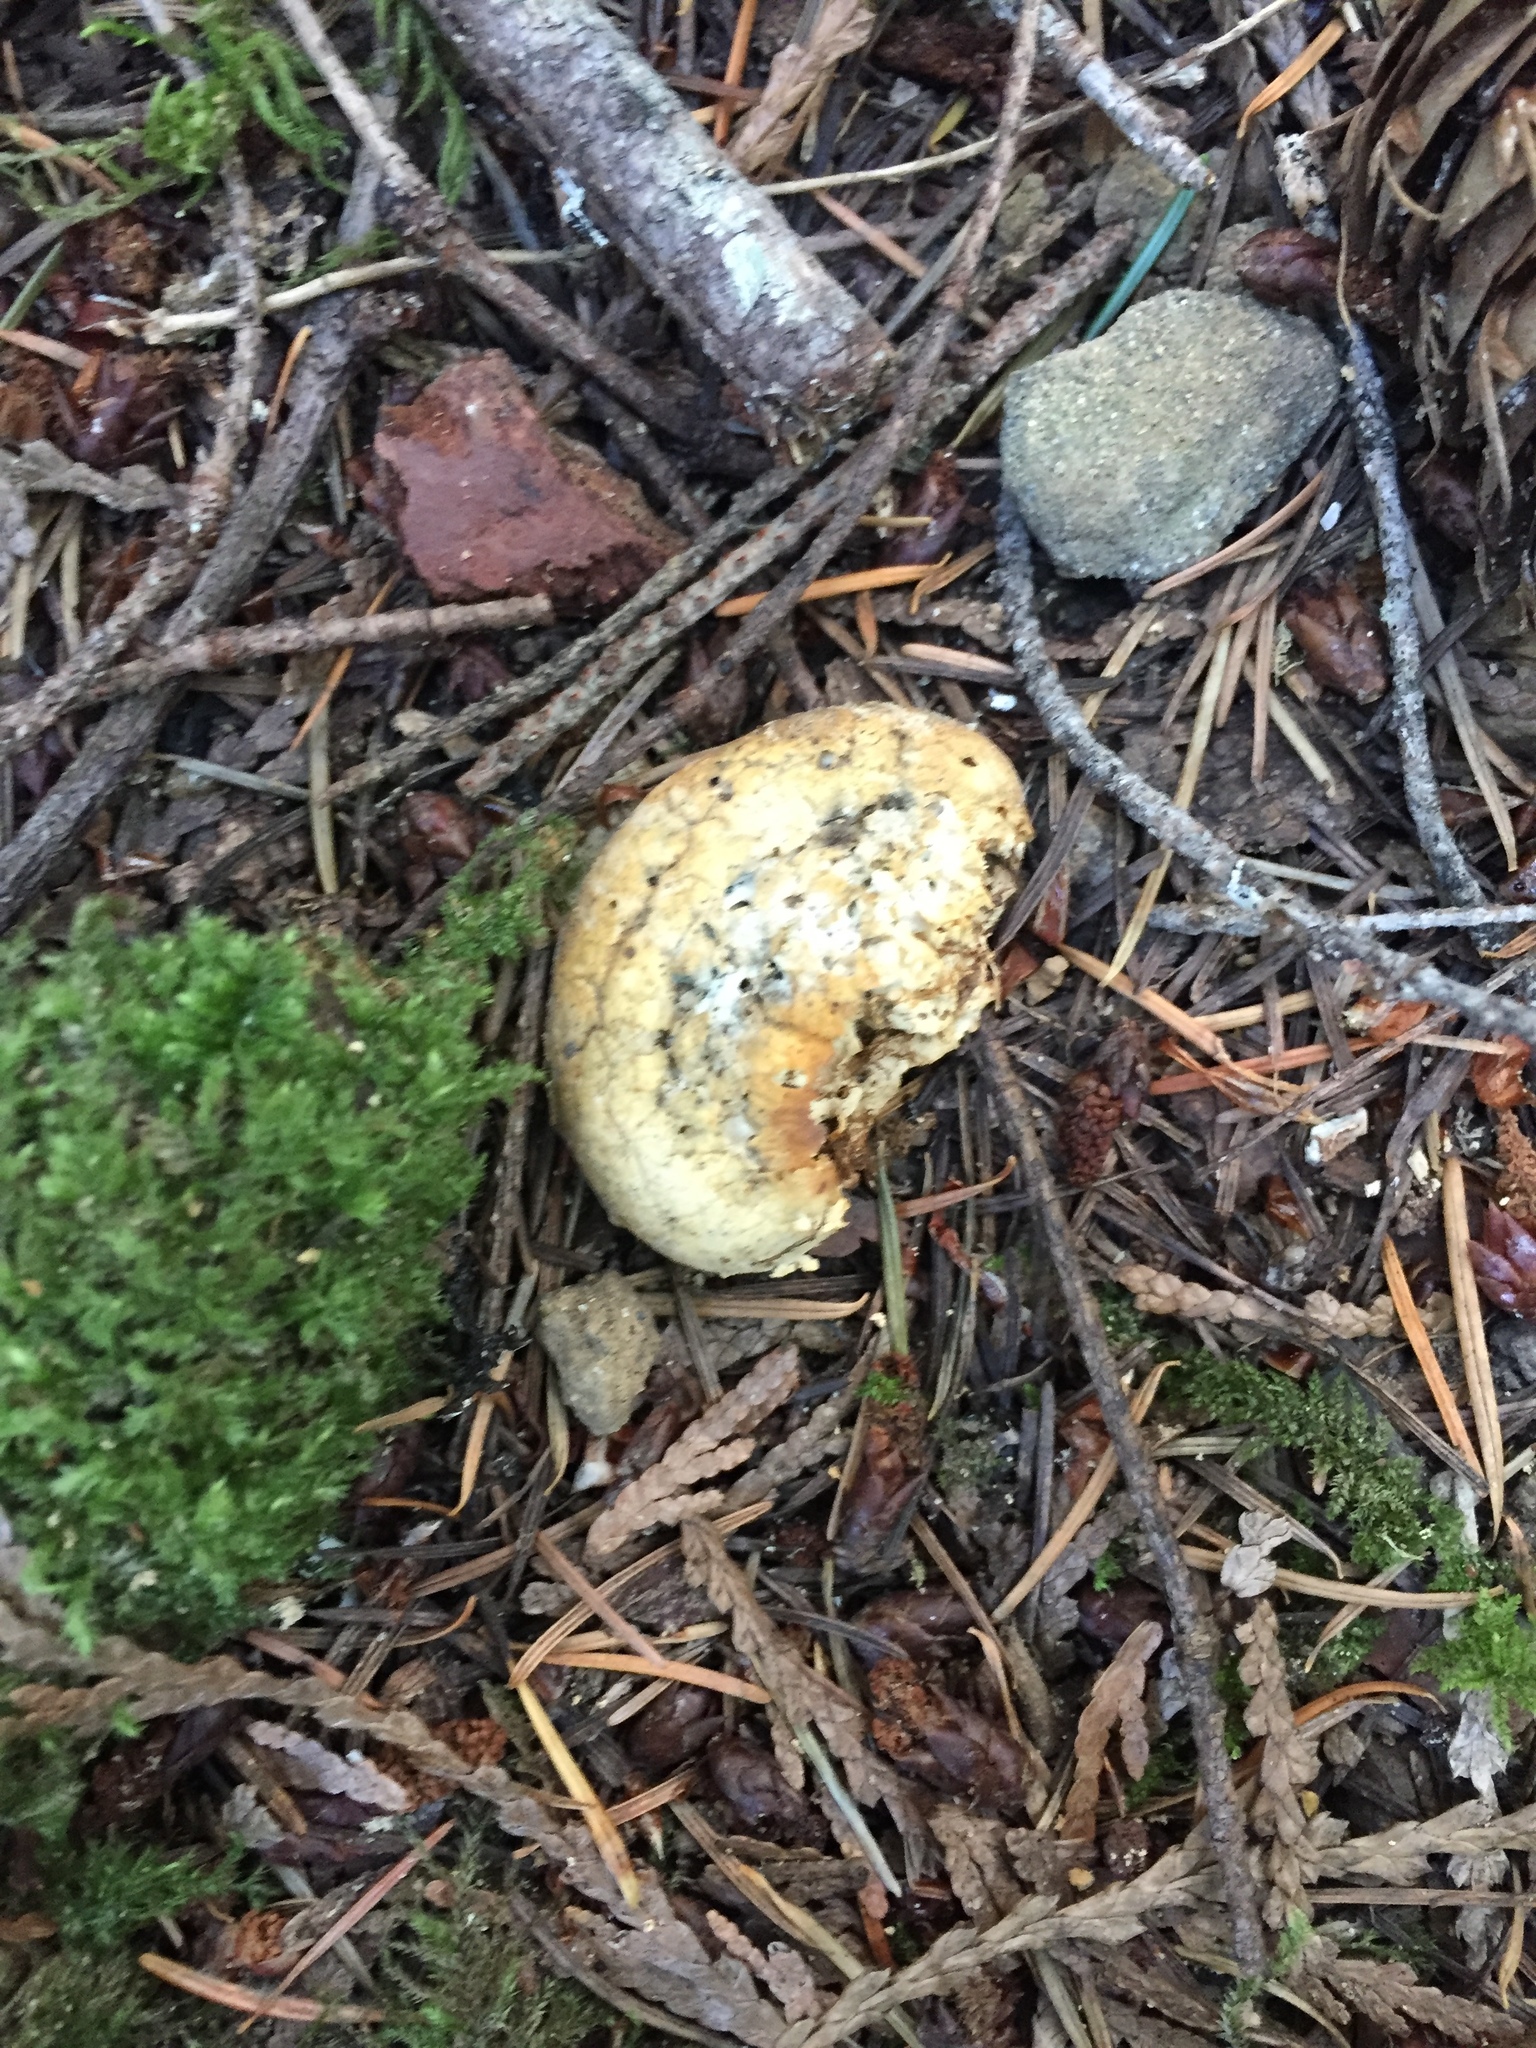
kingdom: Fungi
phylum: Basidiomycota
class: Agaricomycetes
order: Polyporales
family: Polyporaceae
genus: Cryptoporus
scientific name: Cryptoporus volvatus
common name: Veiled polypore
